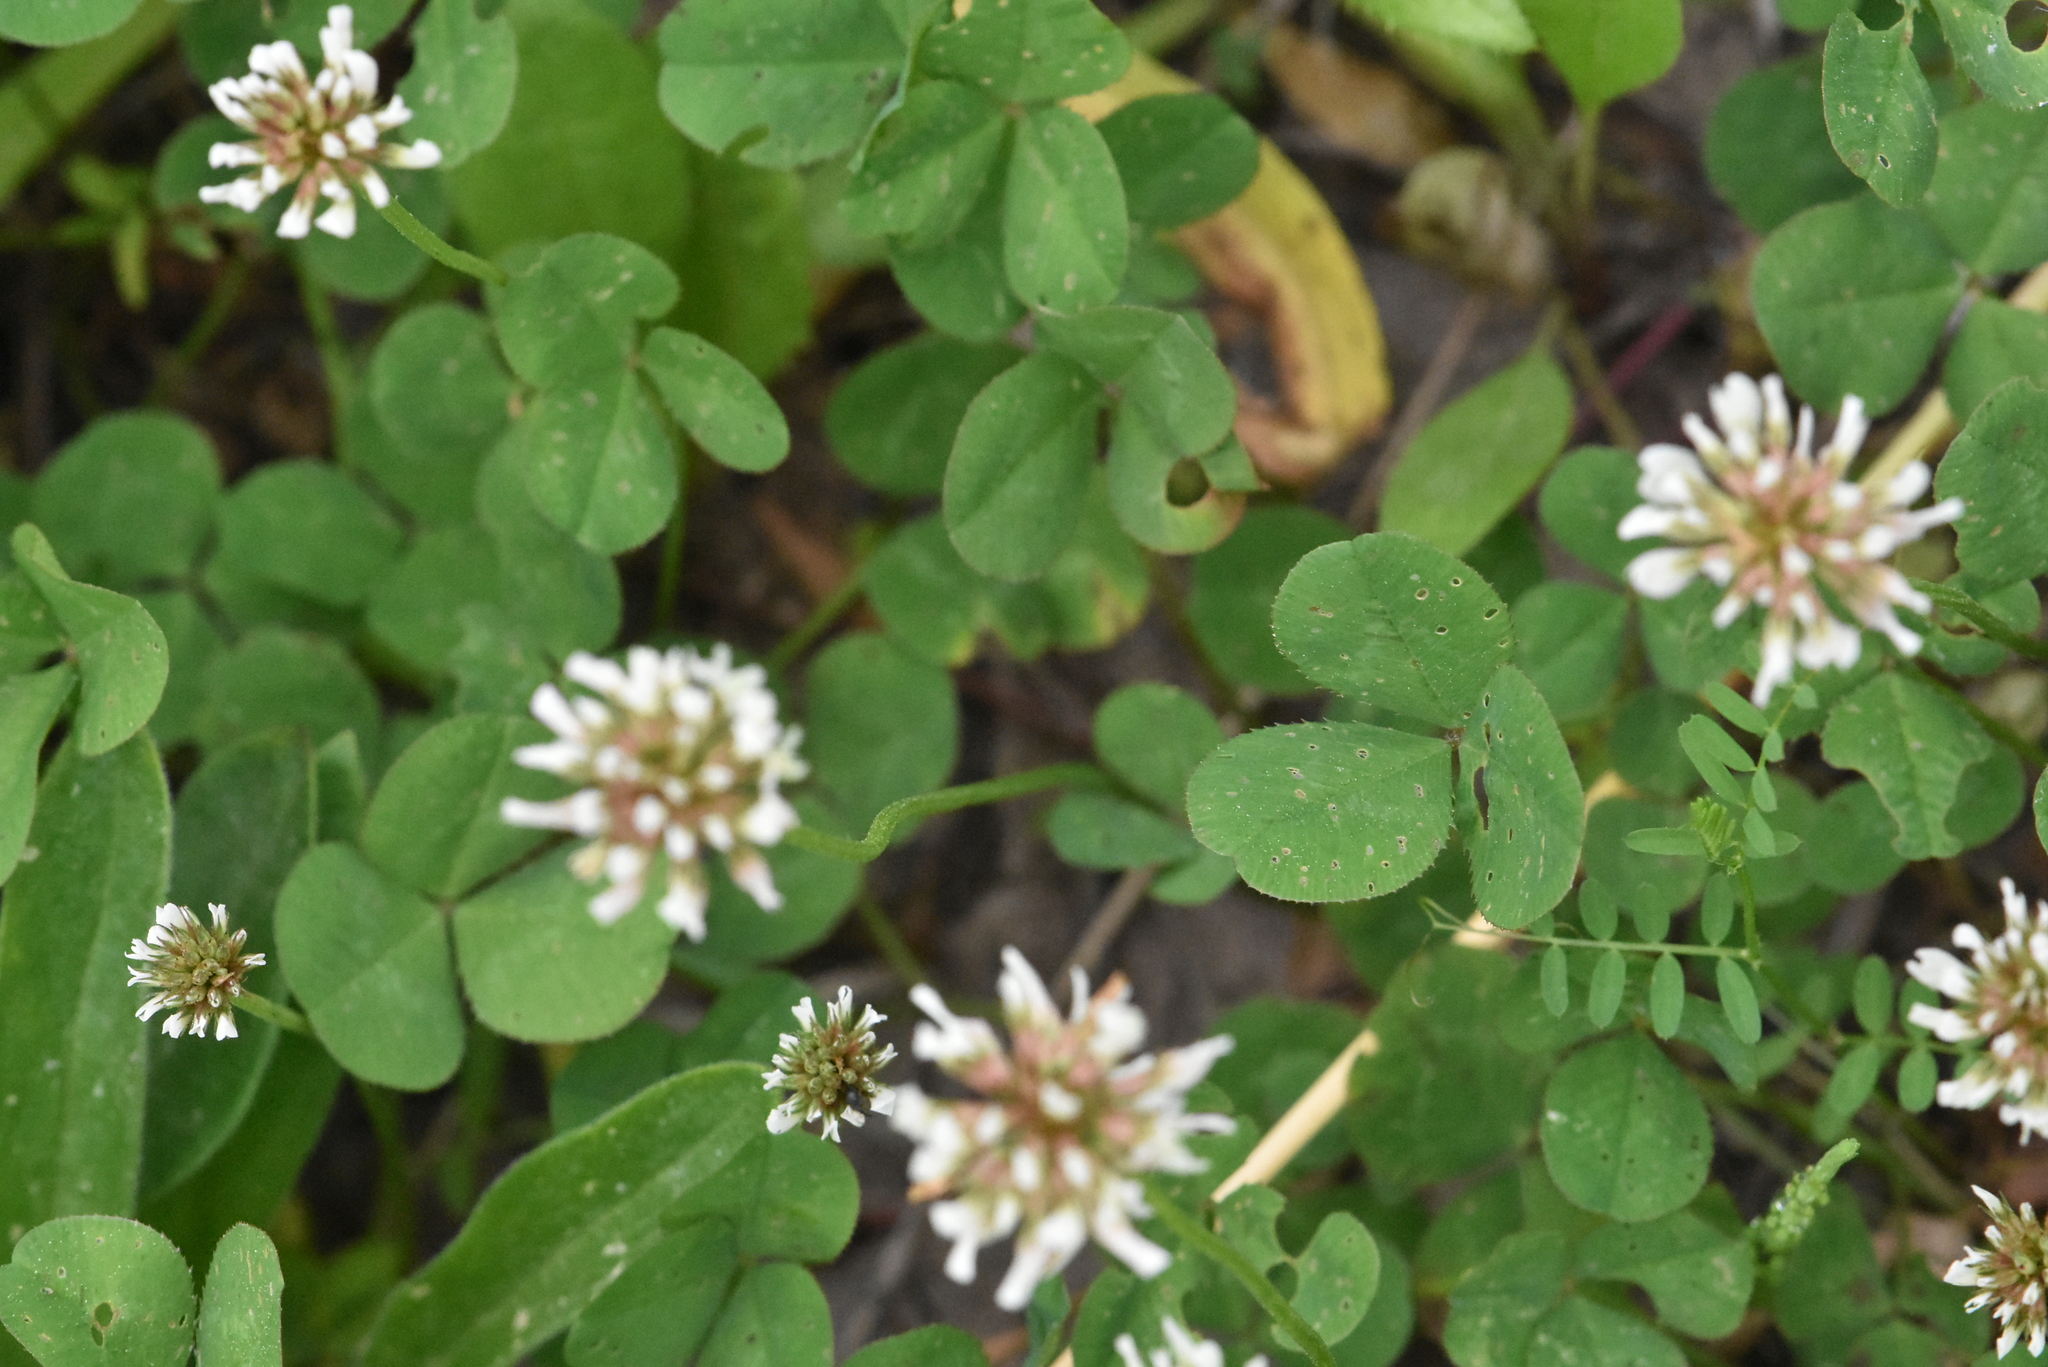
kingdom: Plantae
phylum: Tracheophyta
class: Magnoliopsida
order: Fabales
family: Fabaceae
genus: Trifolium
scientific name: Trifolium repens
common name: White clover
